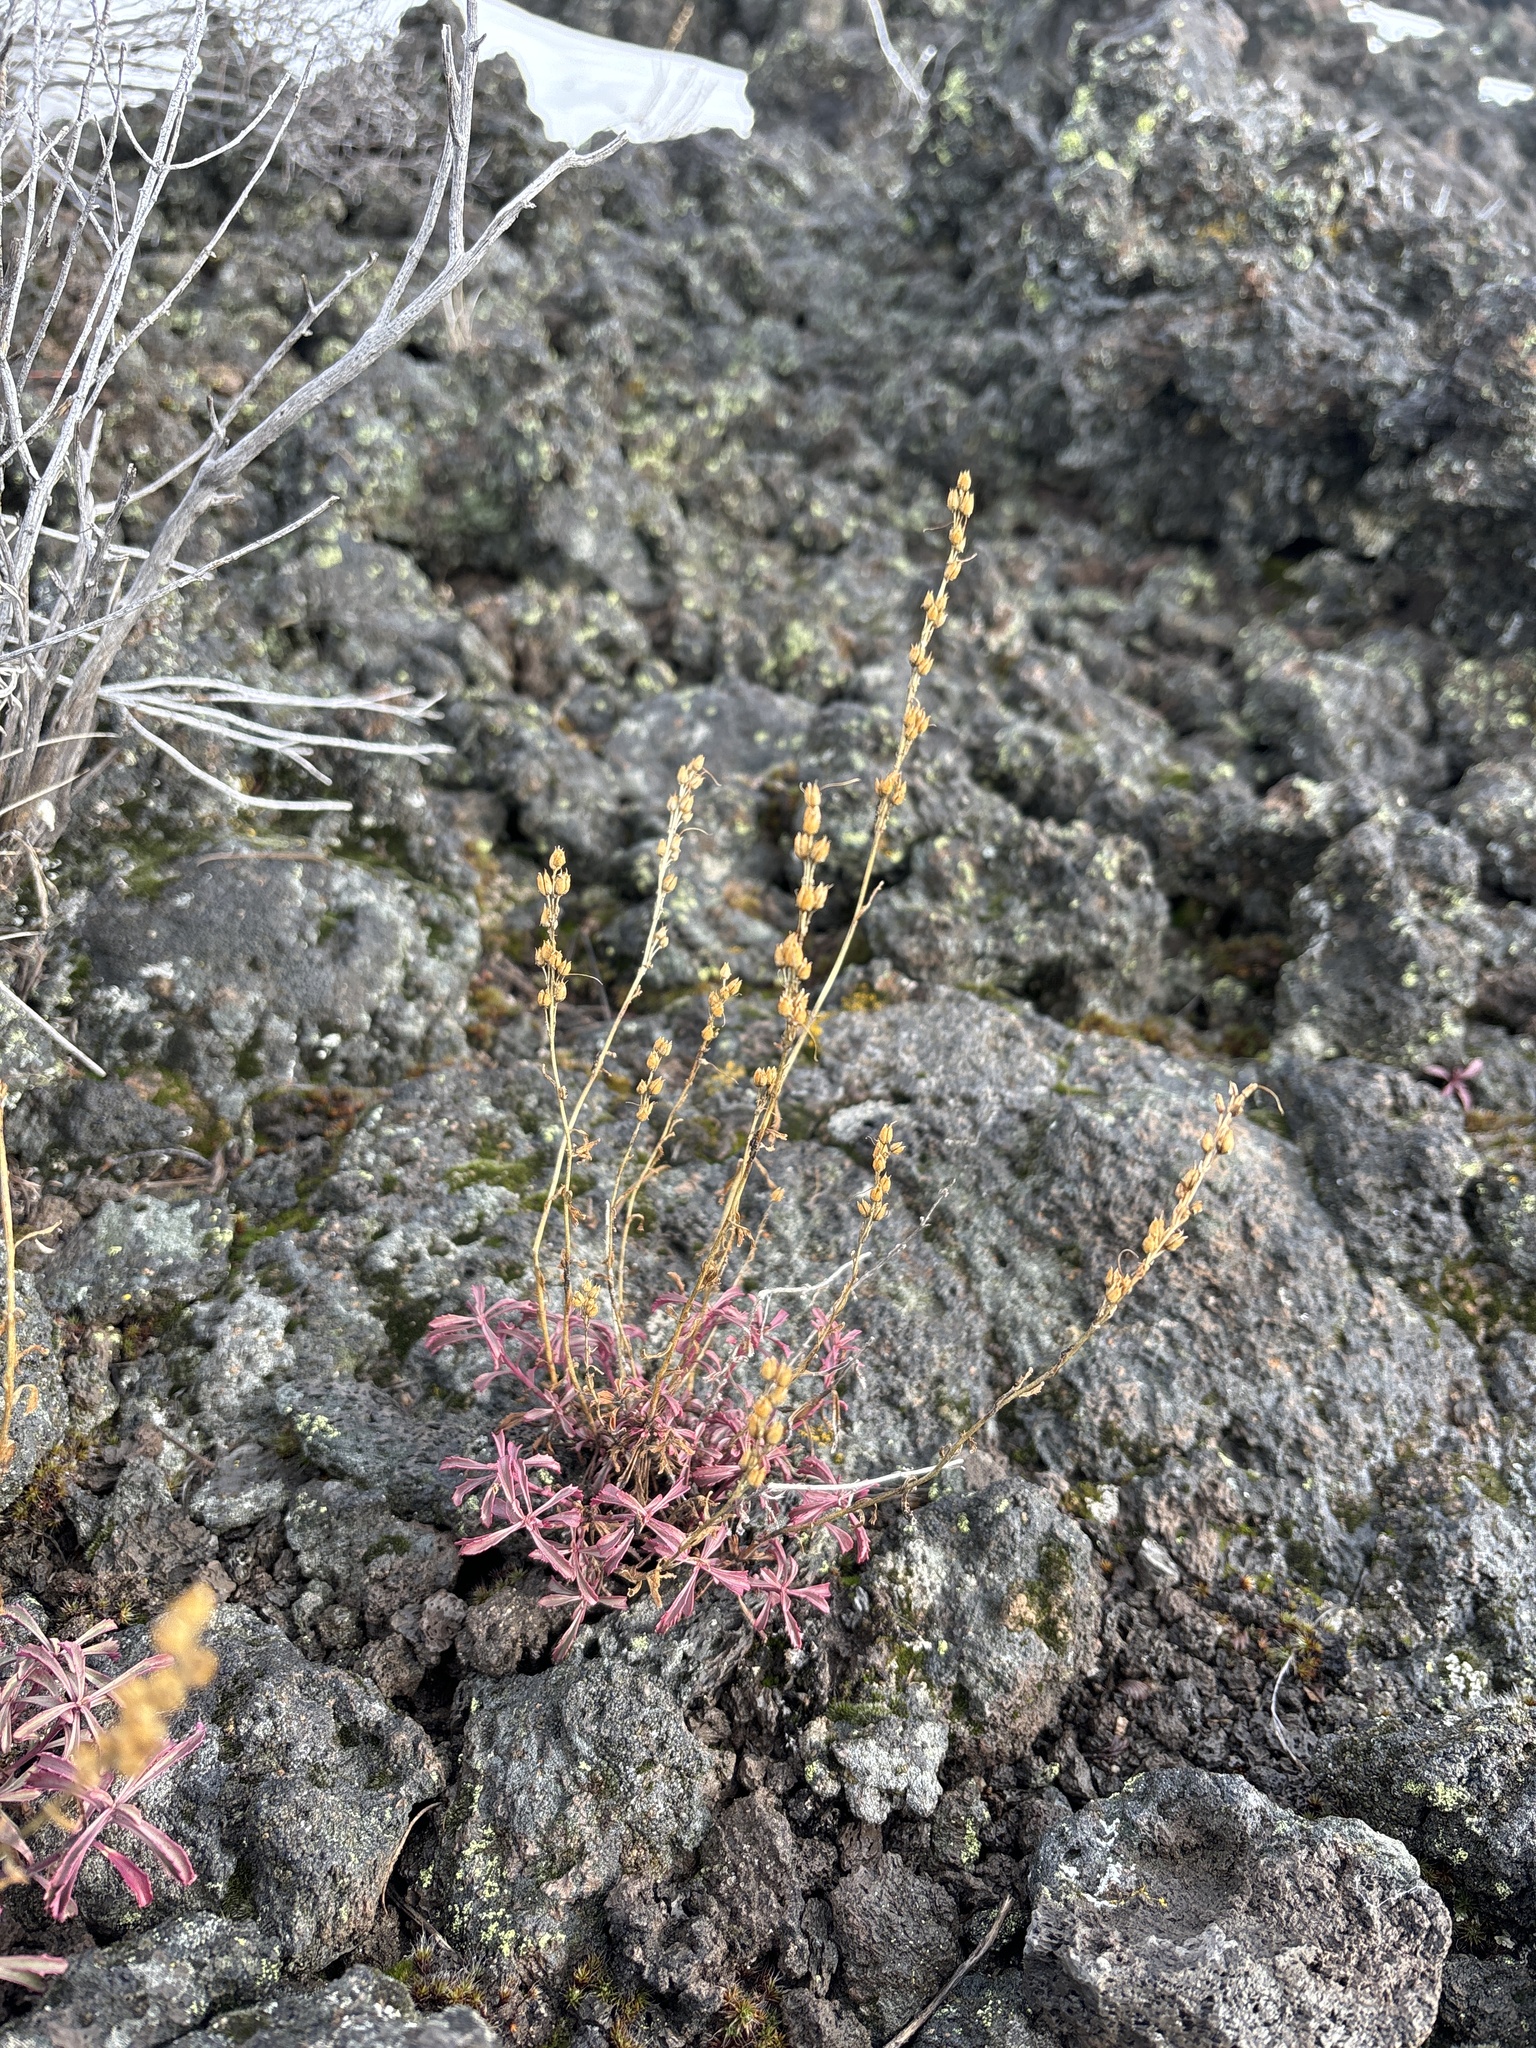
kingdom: Plantae
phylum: Tracheophyta
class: Magnoliopsida
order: Lamiales
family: Plantaginaceae
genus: Penstemon
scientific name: Penstemon deustus
